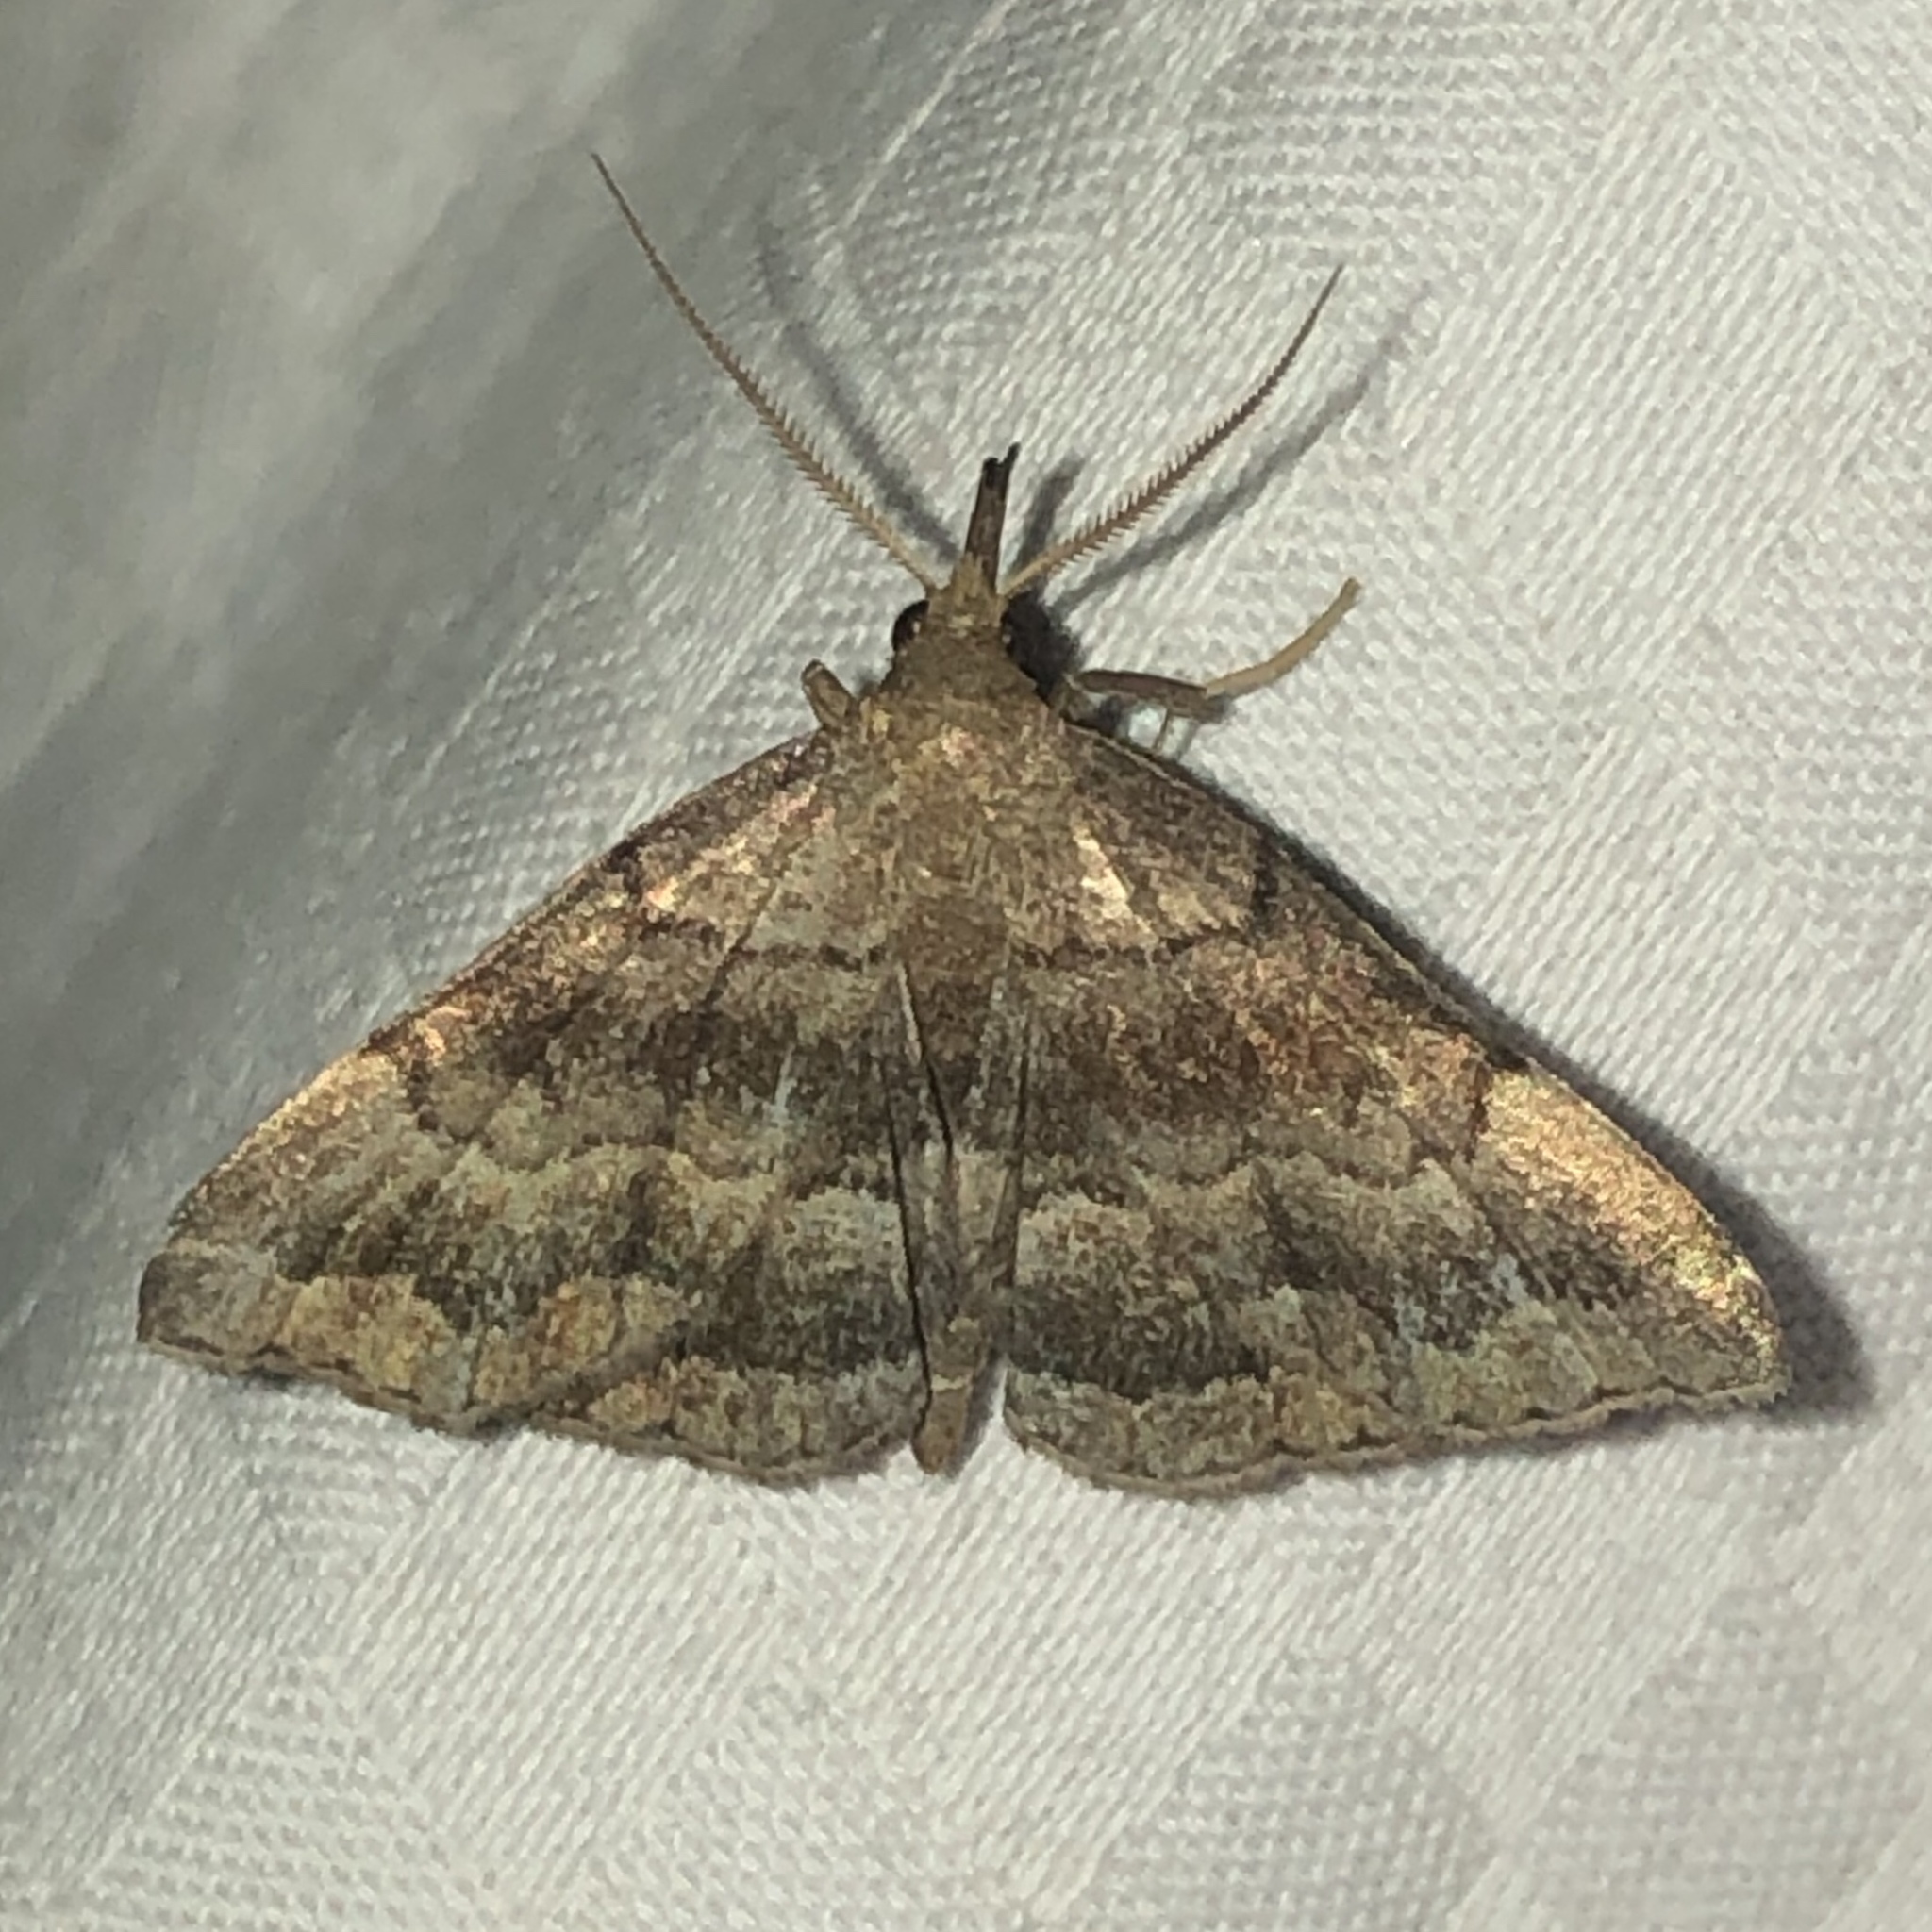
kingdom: Animalia
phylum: Arthropoda
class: Insecta
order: Lepidoptera
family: Erebidae
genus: Phalaenostola
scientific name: Phalaenostola larentioides
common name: Black-banded owlet
